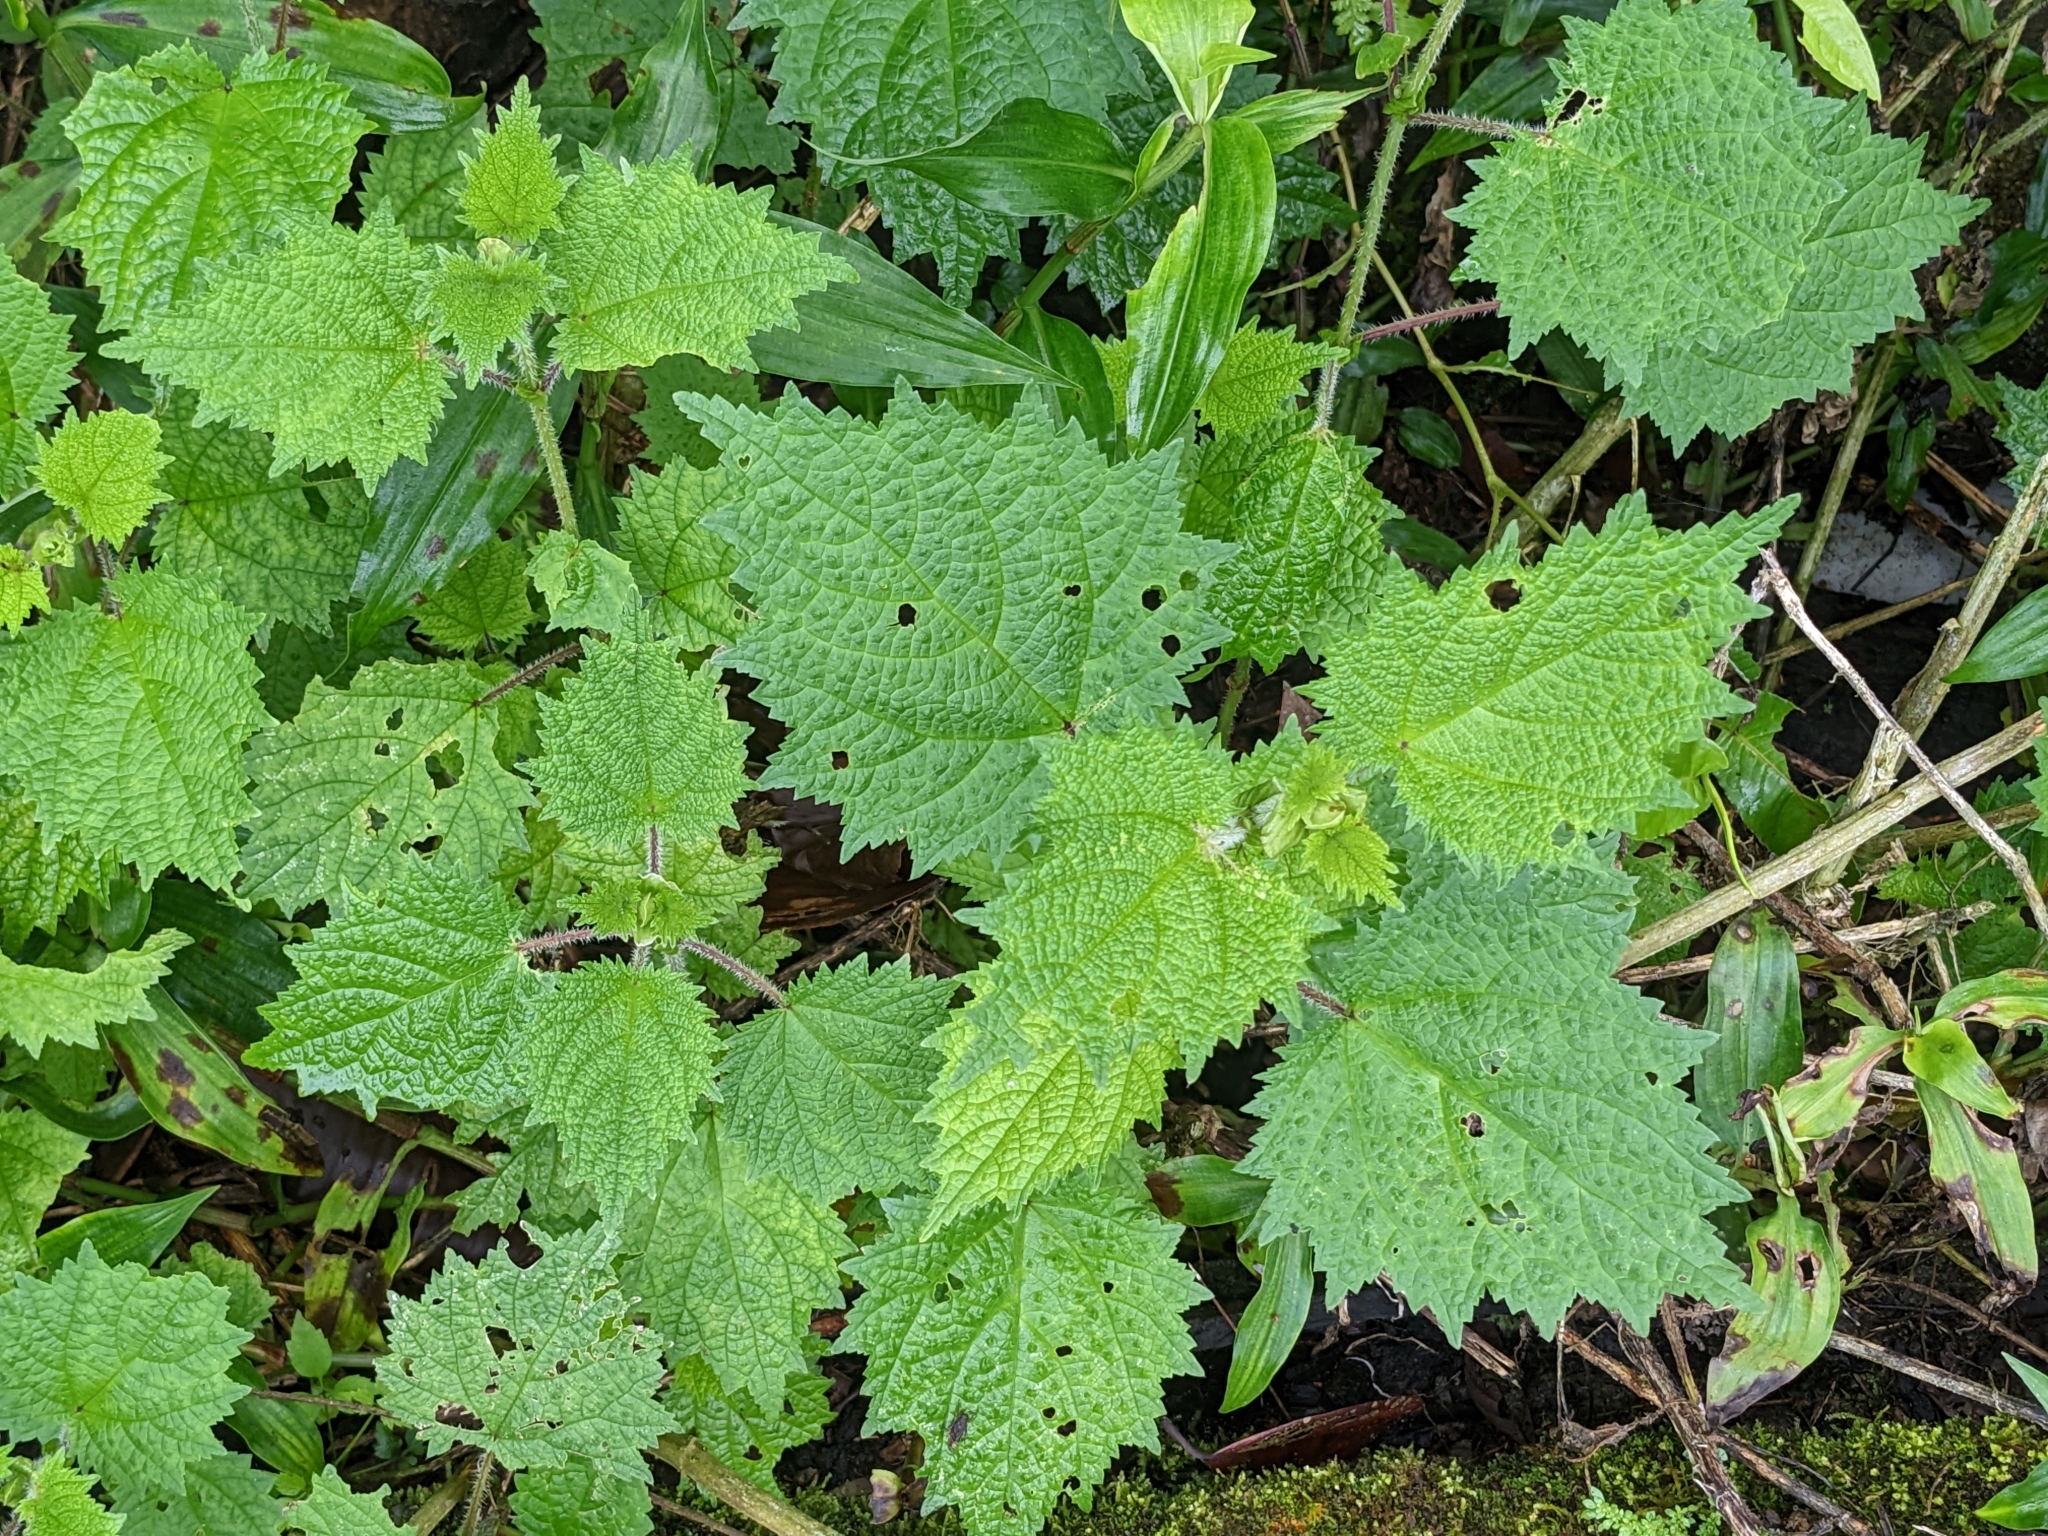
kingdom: Plantae
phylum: Tracheophyta
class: Magnoliopsida
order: Rosales
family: Urticaceae
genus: Urtica
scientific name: Urtica thunbergiana
